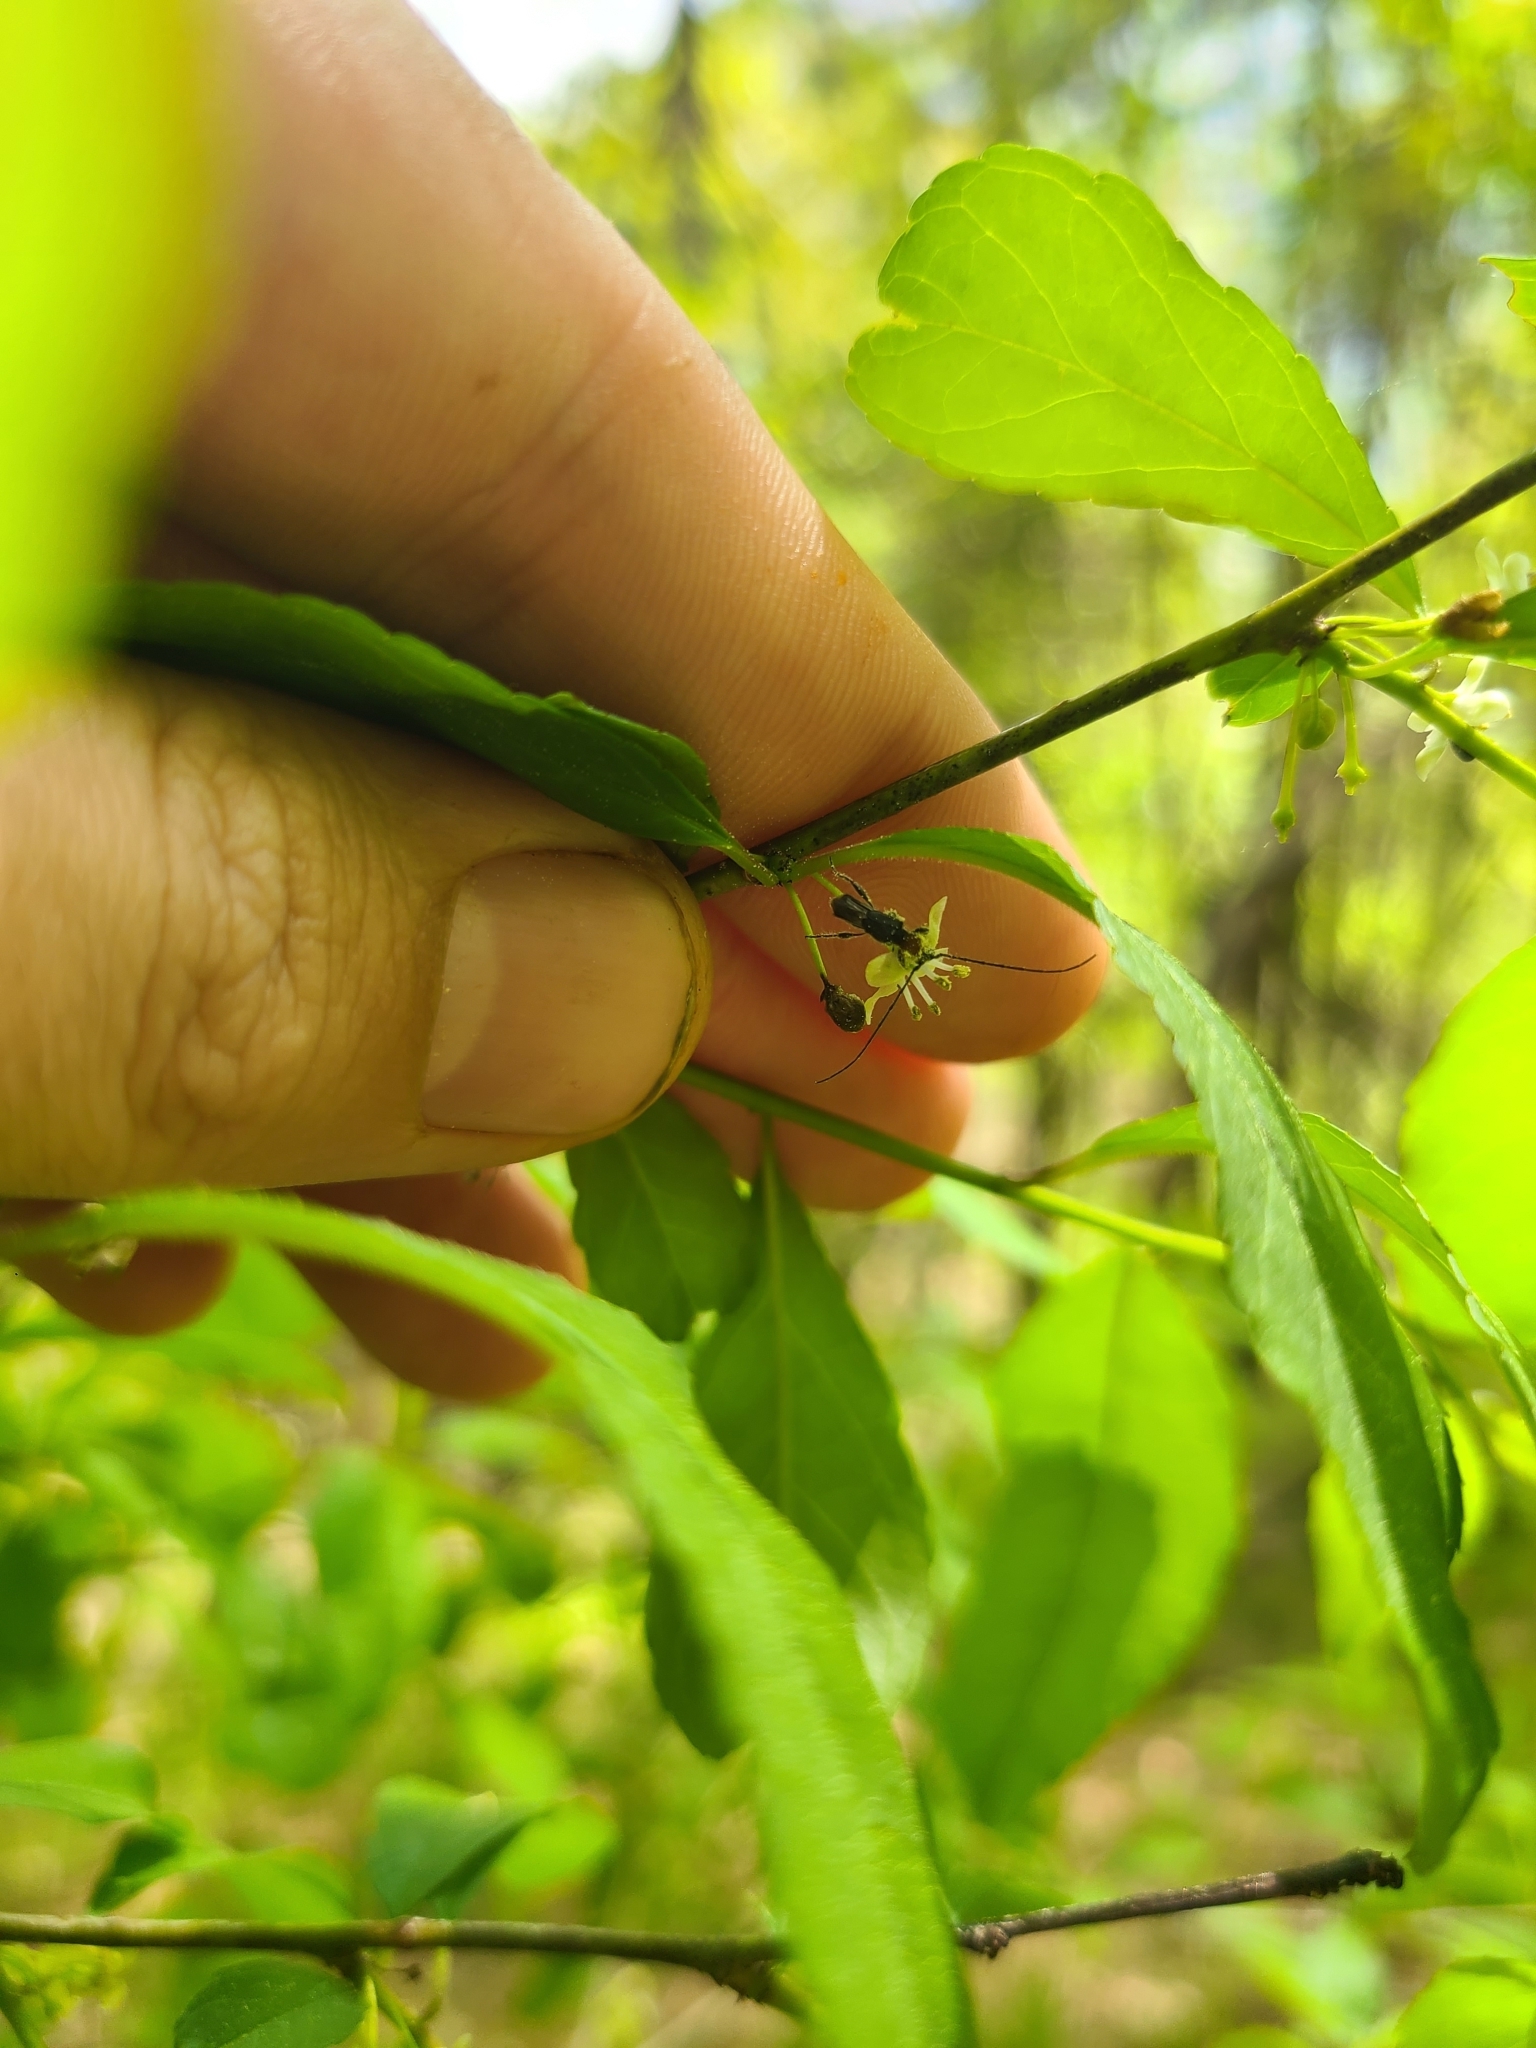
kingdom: Animalia
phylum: Arthropoda
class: Insecta
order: Coleoptera
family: Cerambycidae
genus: Molorchus
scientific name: Molorchus bimaculatus
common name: Bimaculate longhorn beetle
